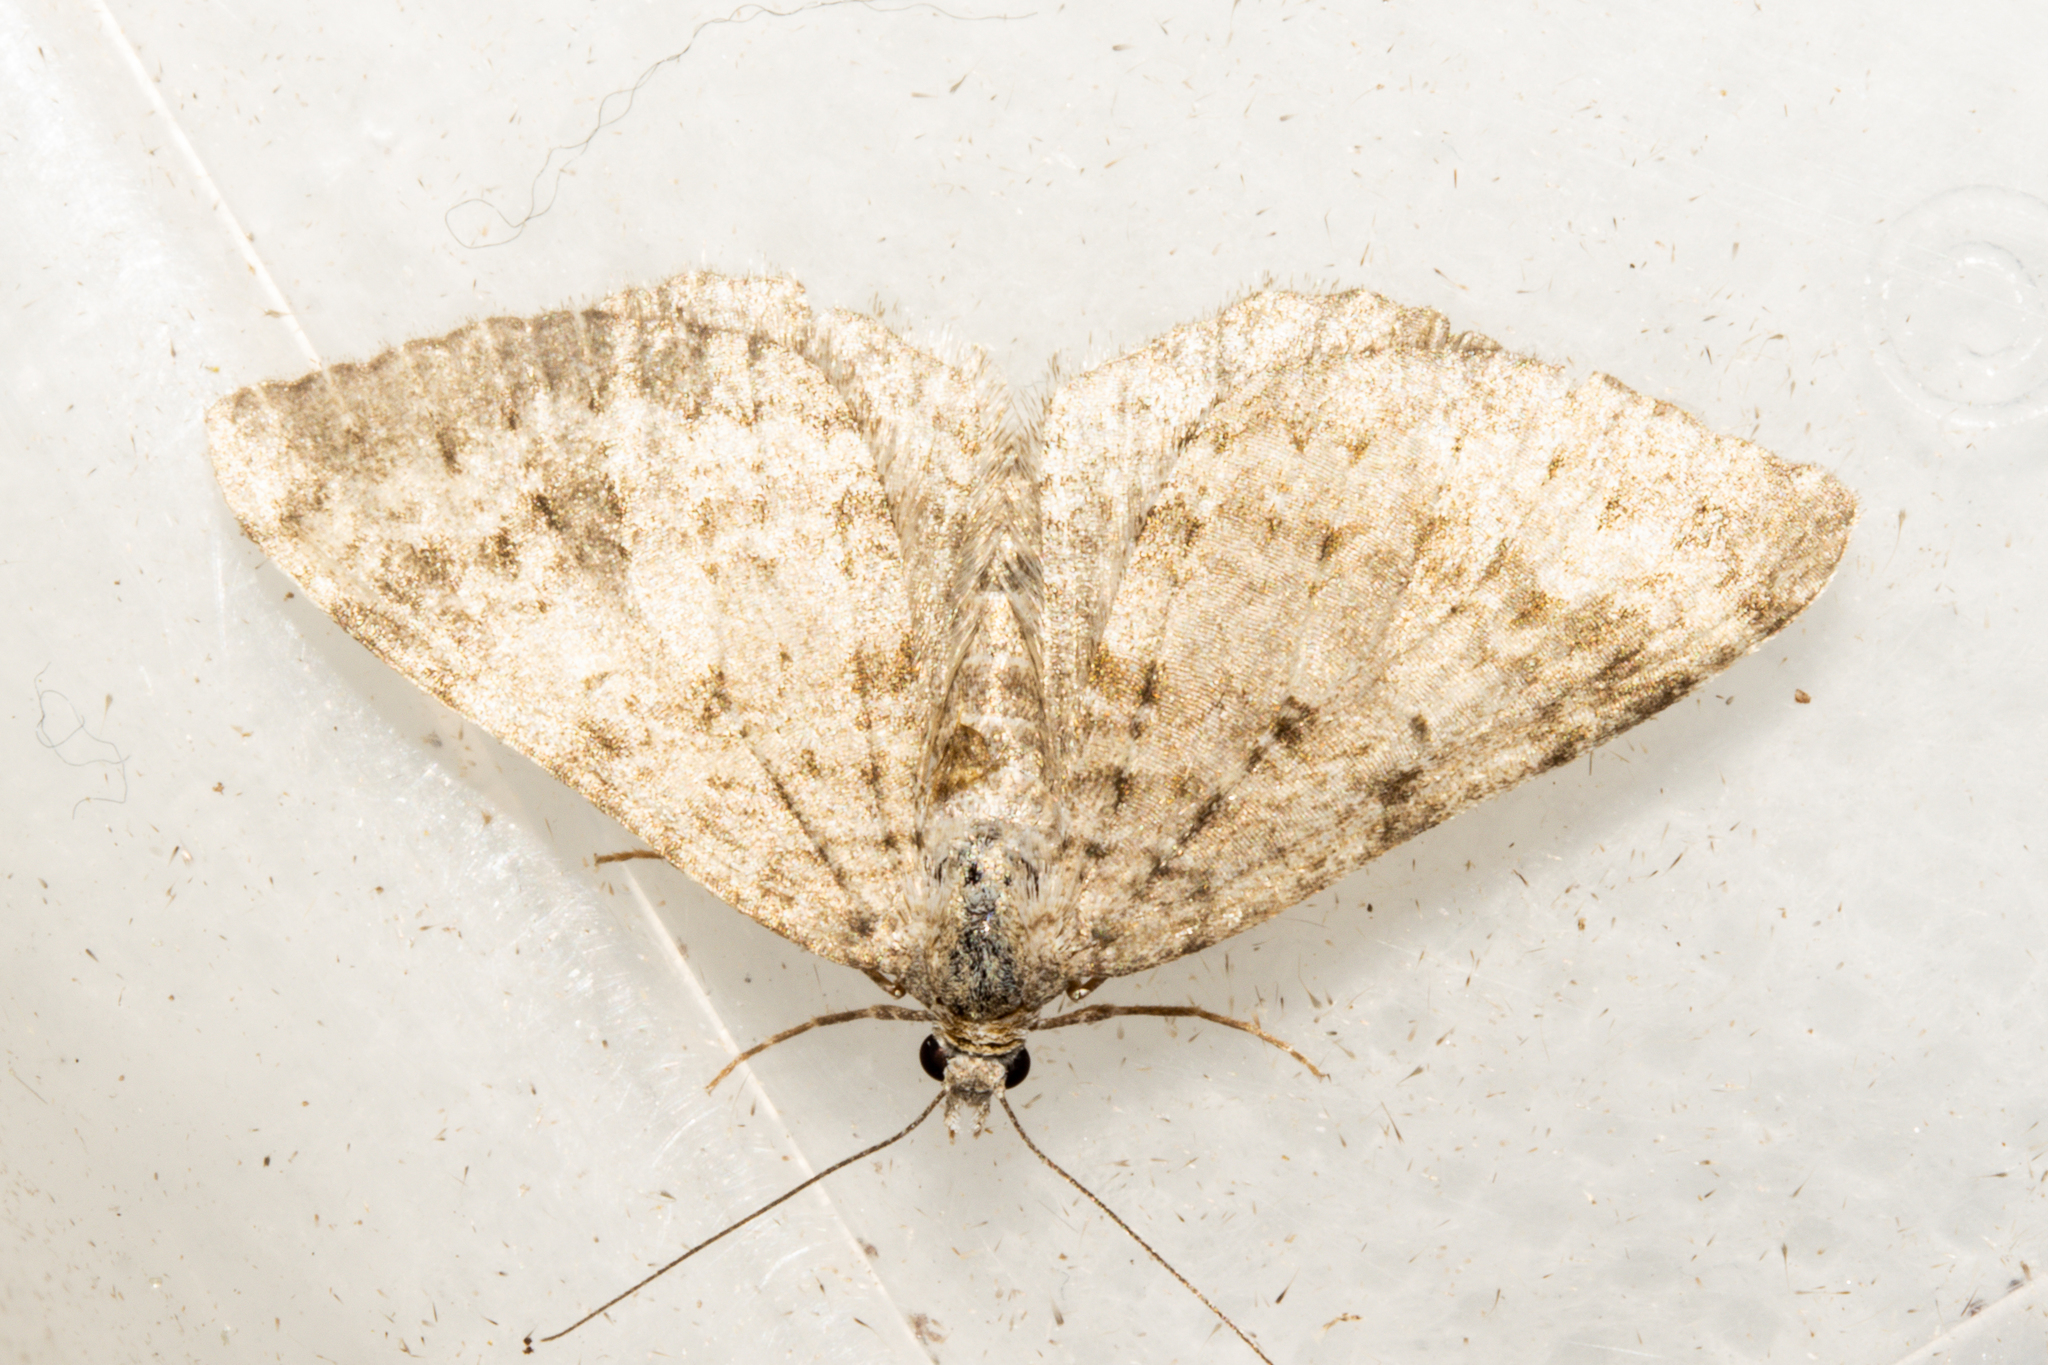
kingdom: Animalia
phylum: Arthropoda
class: Insecta
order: Lepidoptera
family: Geometridae
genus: Helastia
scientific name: Helastia corcularia
